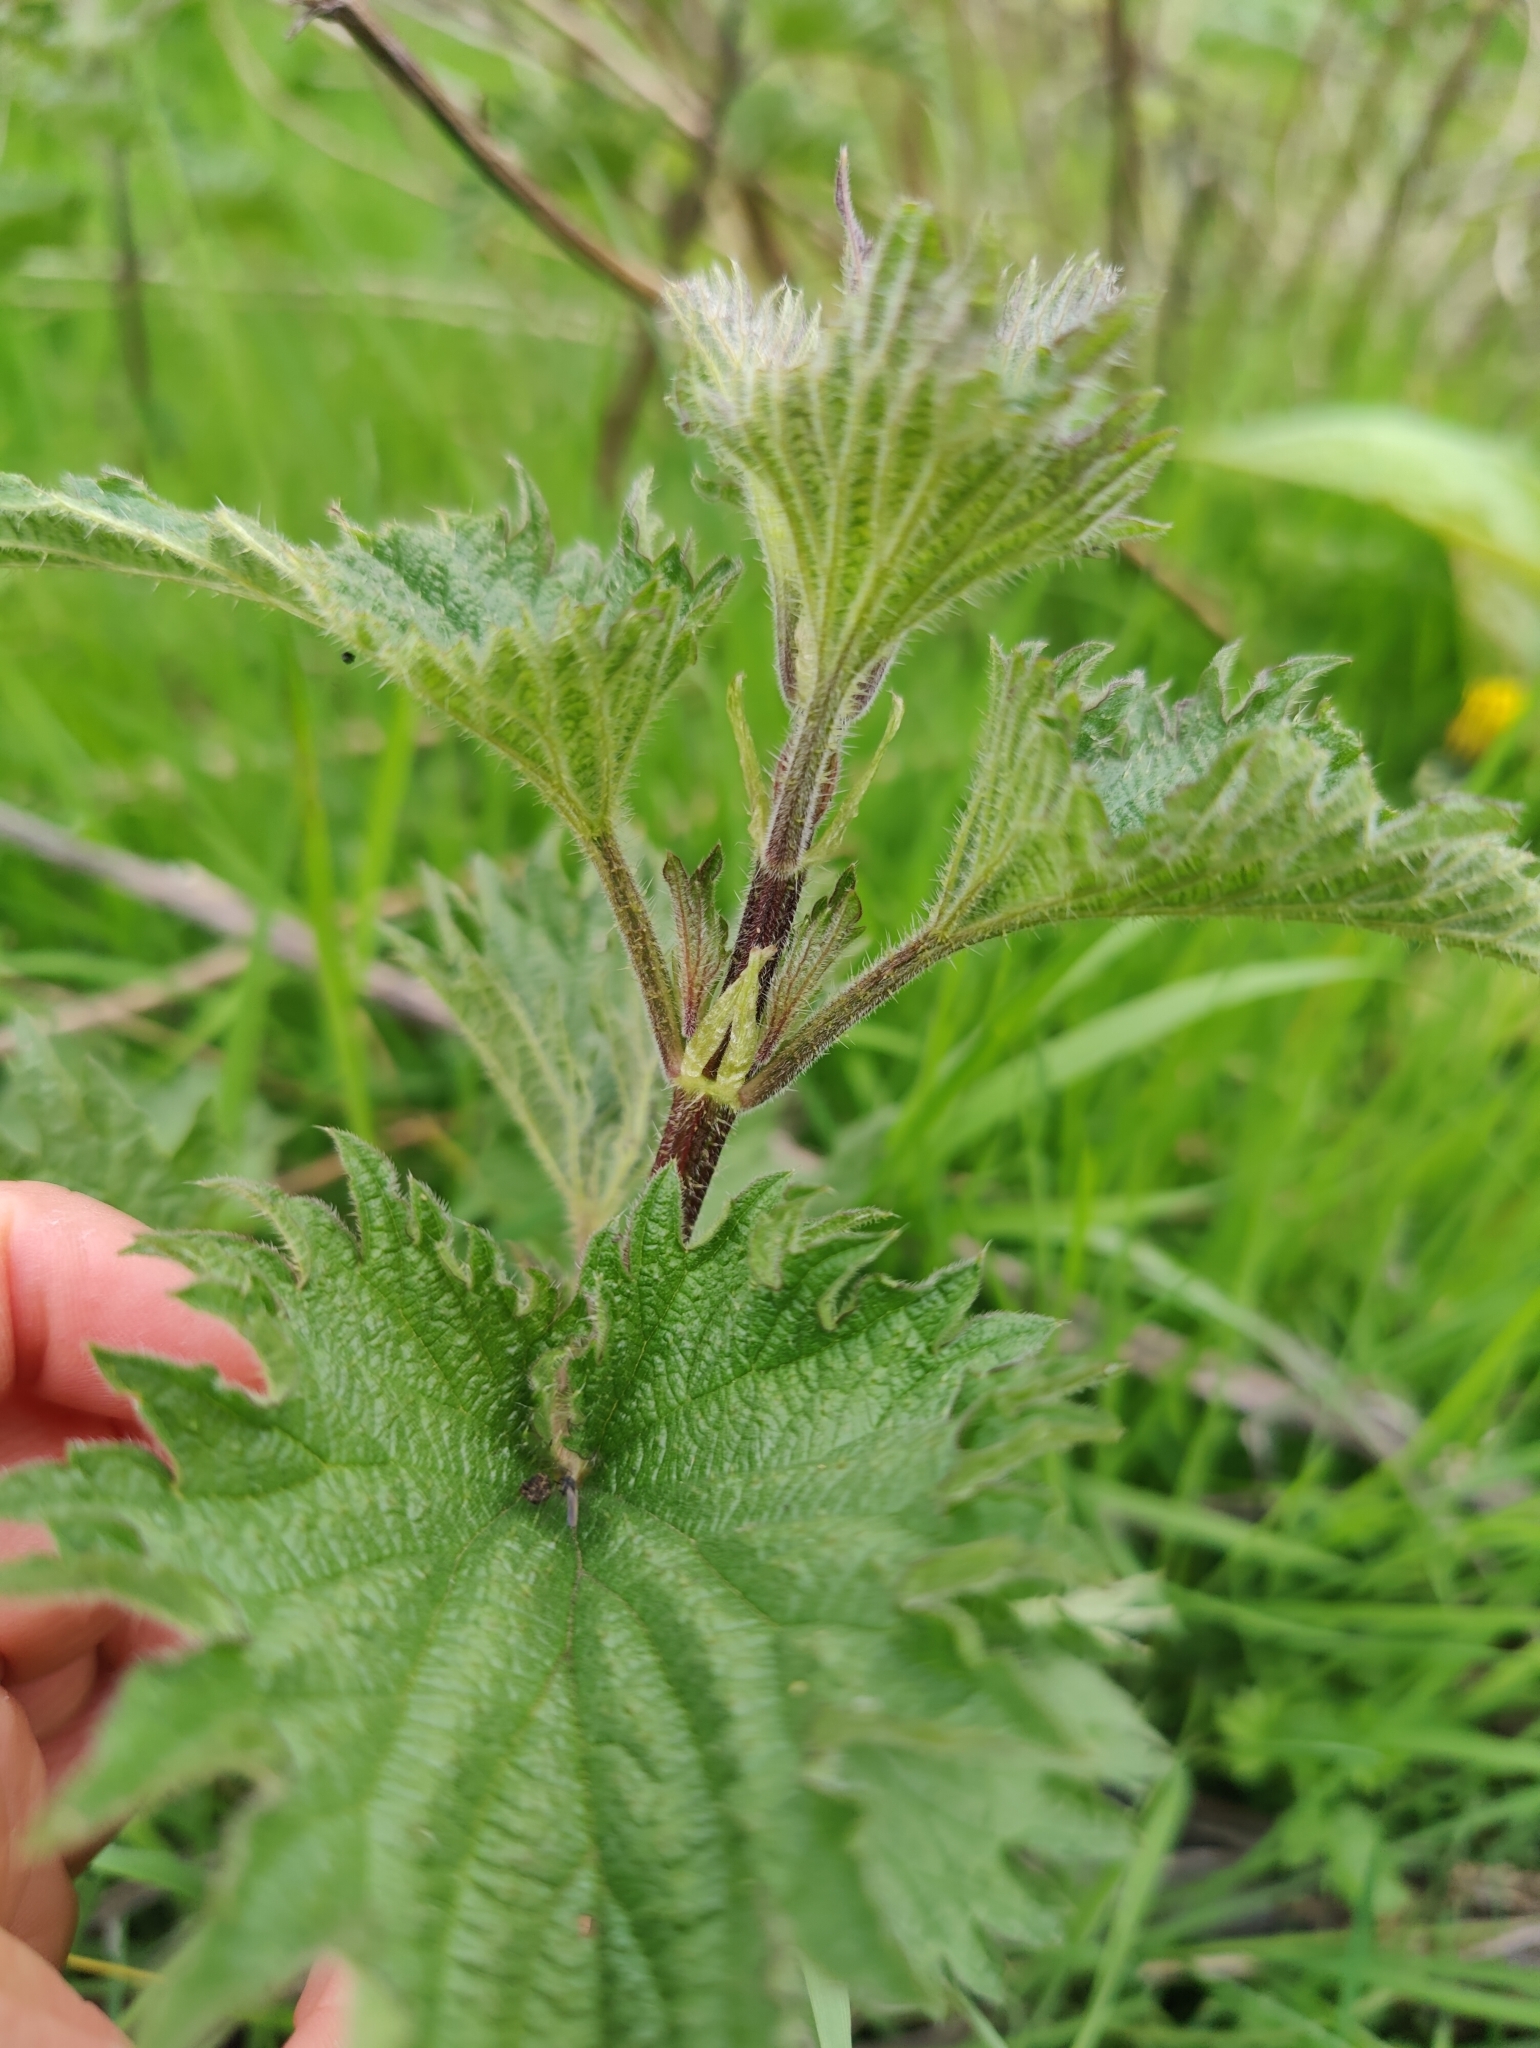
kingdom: Plantae
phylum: Tracheophyta
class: Magnoliopsida
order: Rosales
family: Urticaceae
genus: Urtica
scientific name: Urtica dioica
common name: Common nettle
